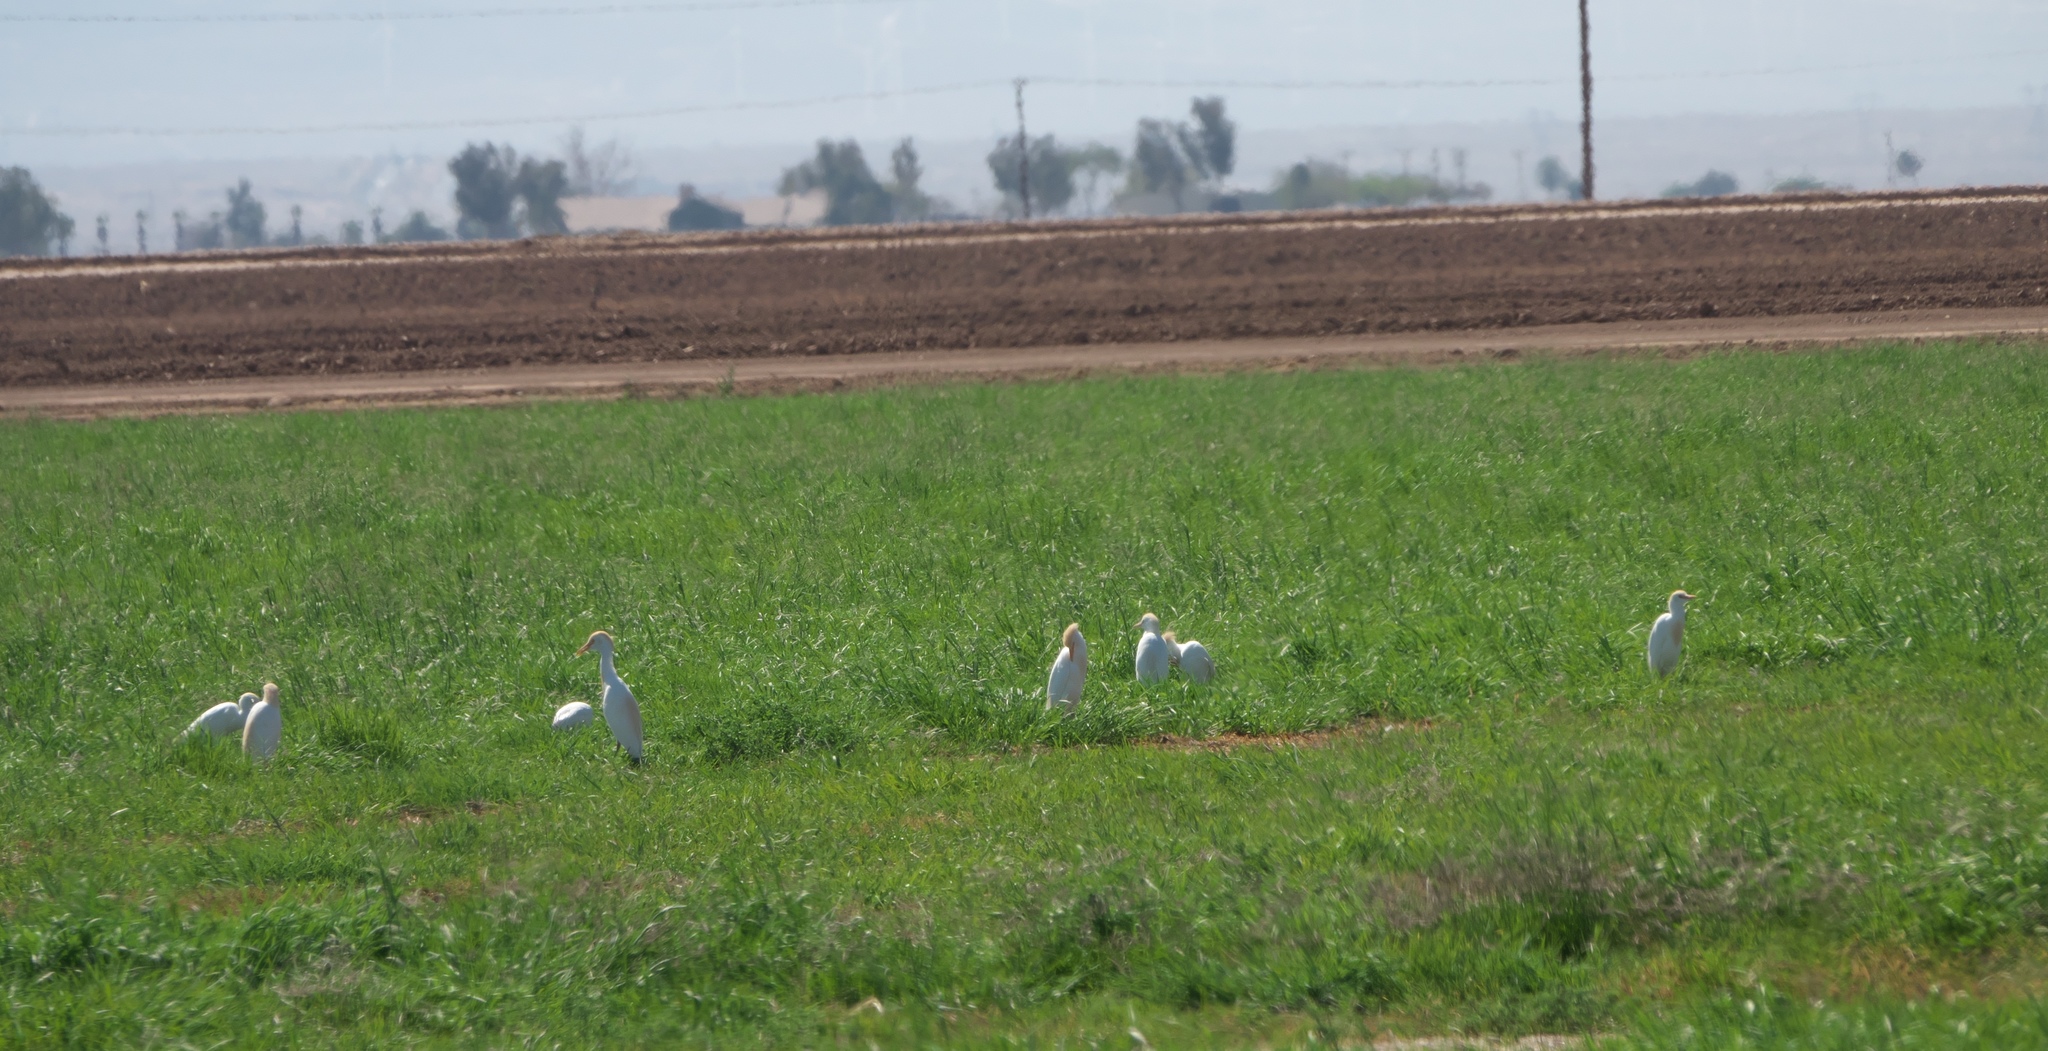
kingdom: Animalia
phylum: Chordata
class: Aves
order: Pelecaniformes
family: Ardeidae
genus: Bubulcus
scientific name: Bubulcus ibis
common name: Cattle egret
